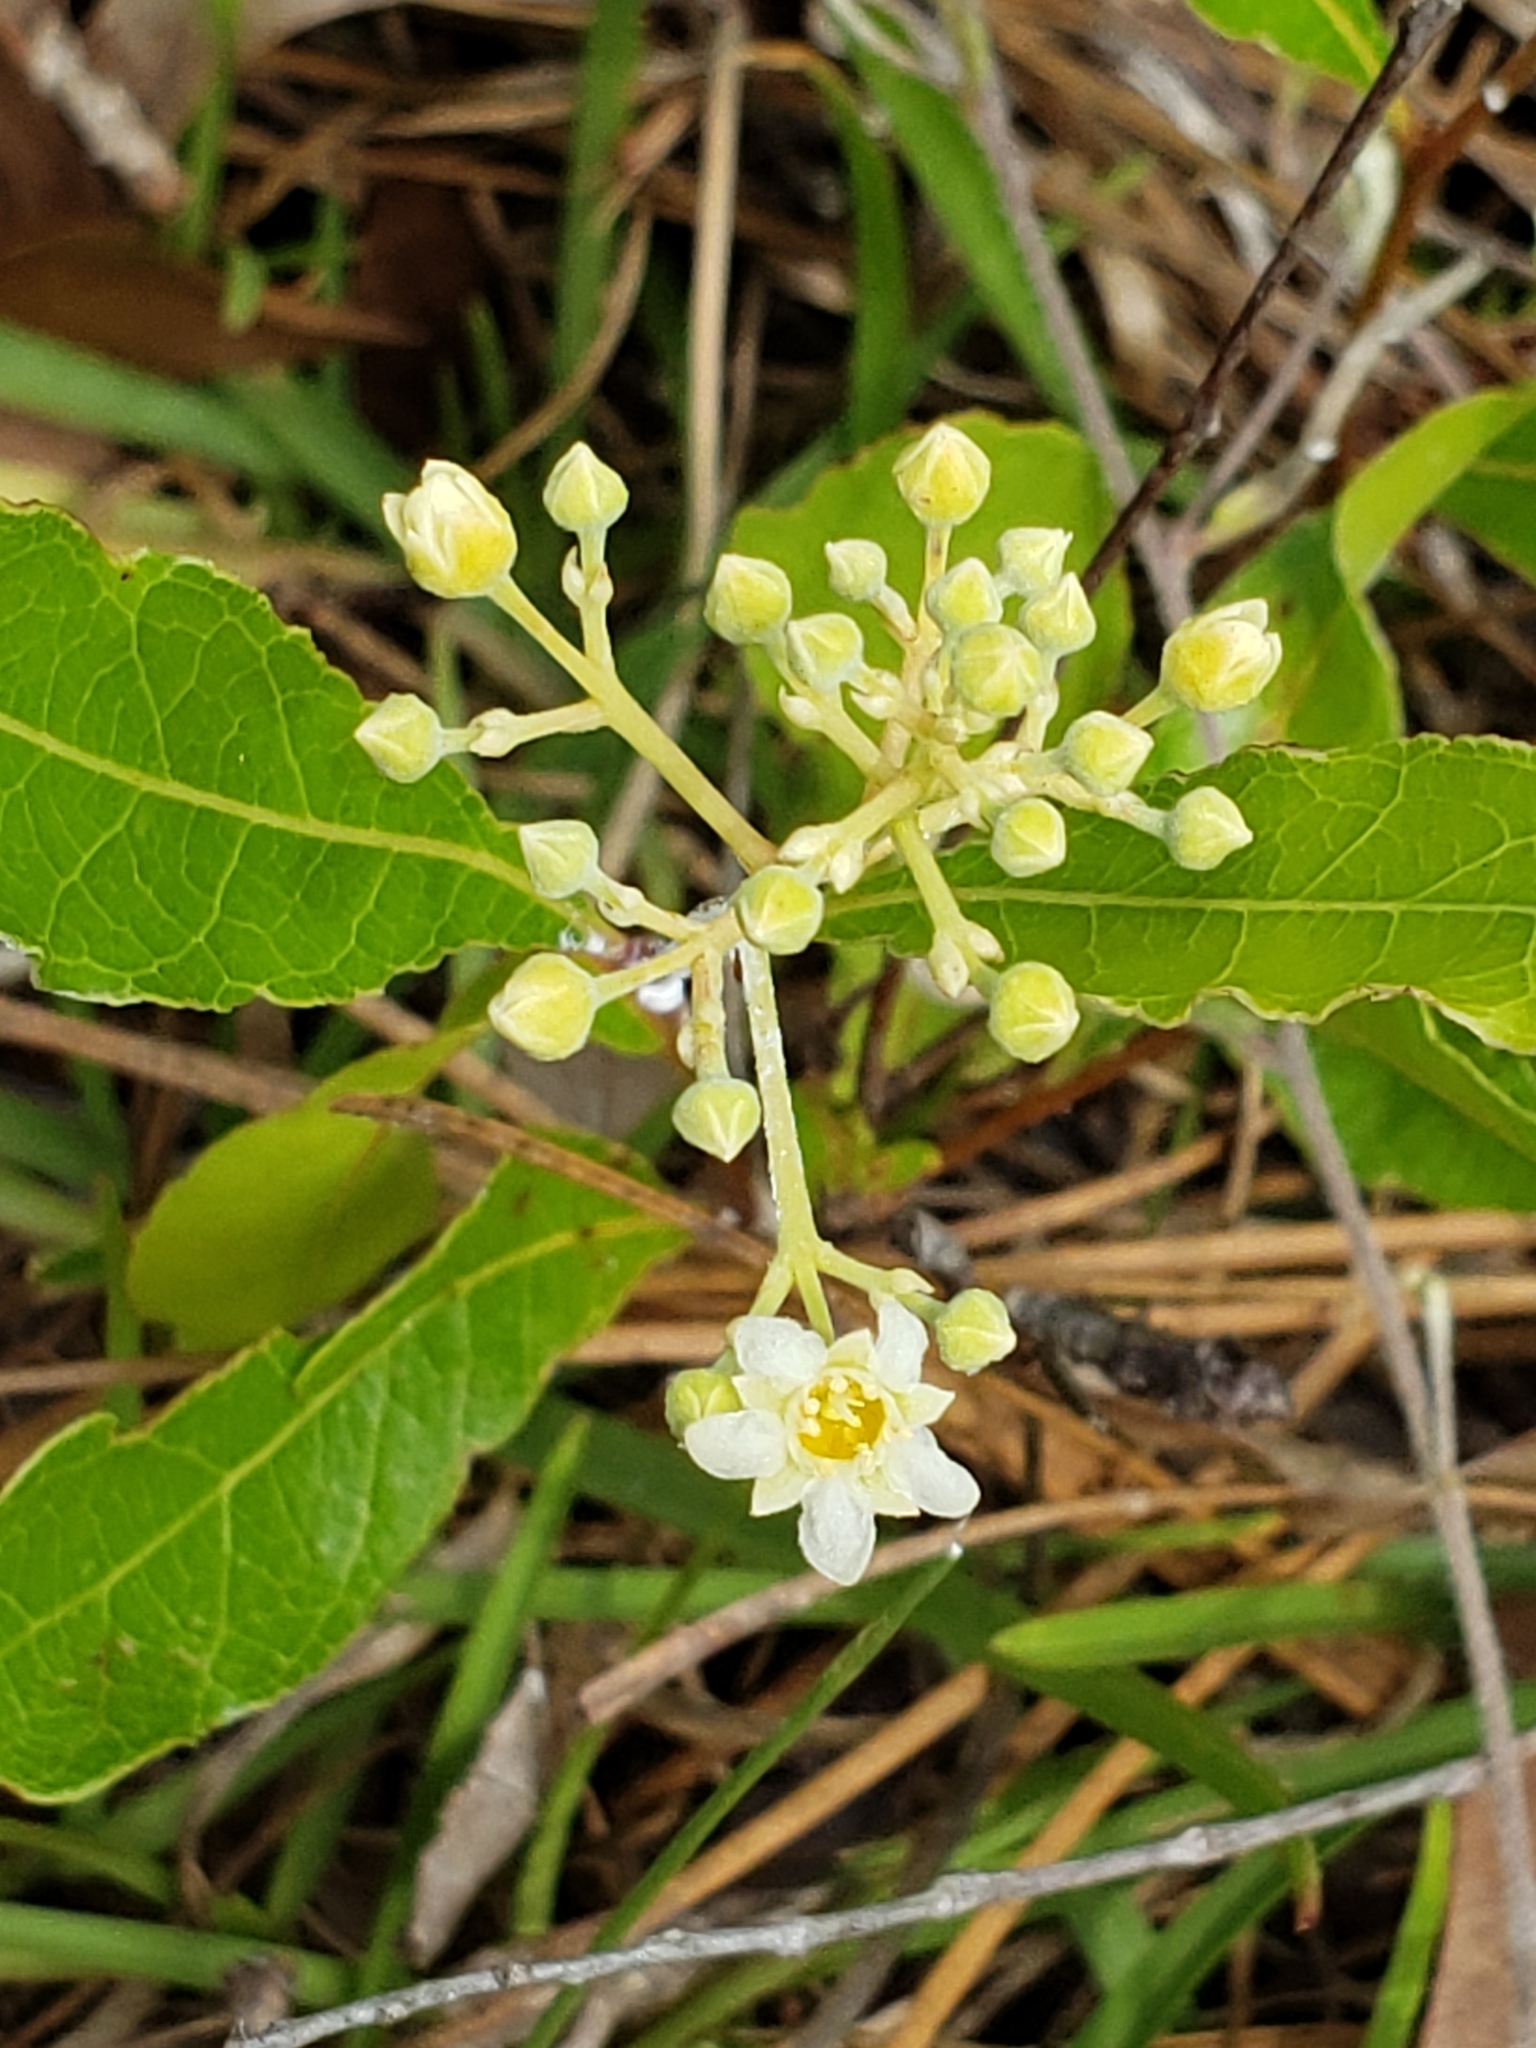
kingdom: Plantae
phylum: Tracheophyta
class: Magnoliopsida
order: Malpighiales
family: Chrysobalanaceae
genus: Geobalanus
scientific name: Geobalanus oblongifolius
